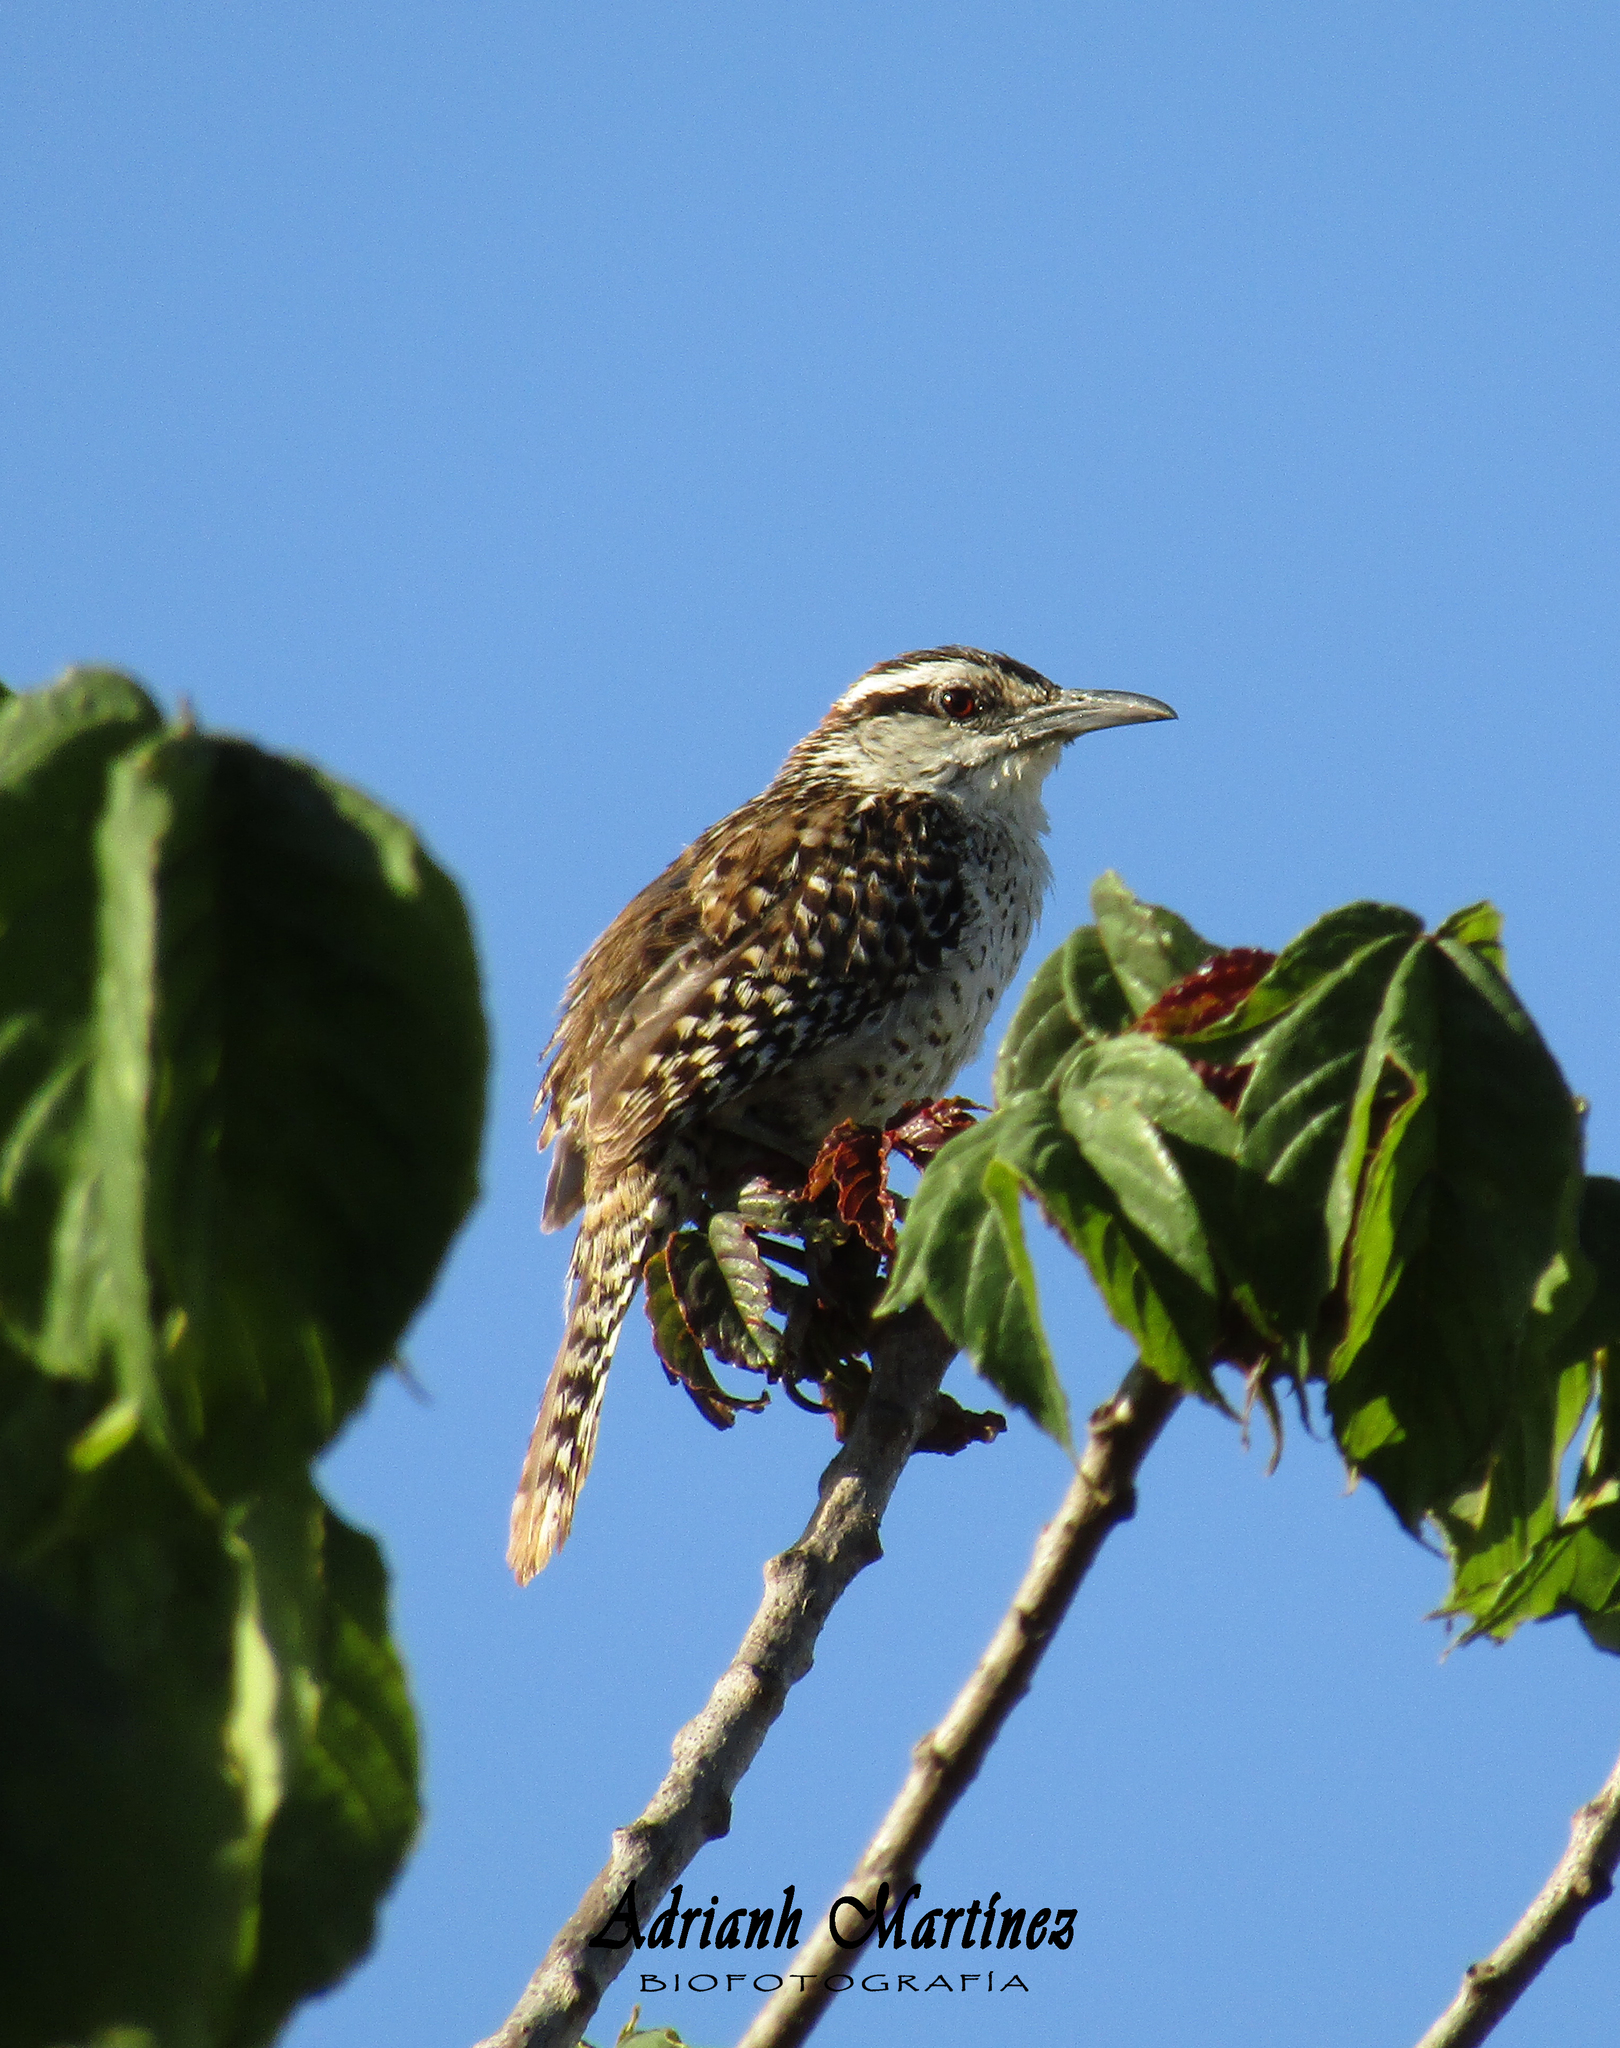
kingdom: Animalia
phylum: Chordata
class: Aves
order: Passeriformes
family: Troglodytidae
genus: Campylorhynchus
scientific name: Campylorhynchus rufinucha
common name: Rufous-naped wren
